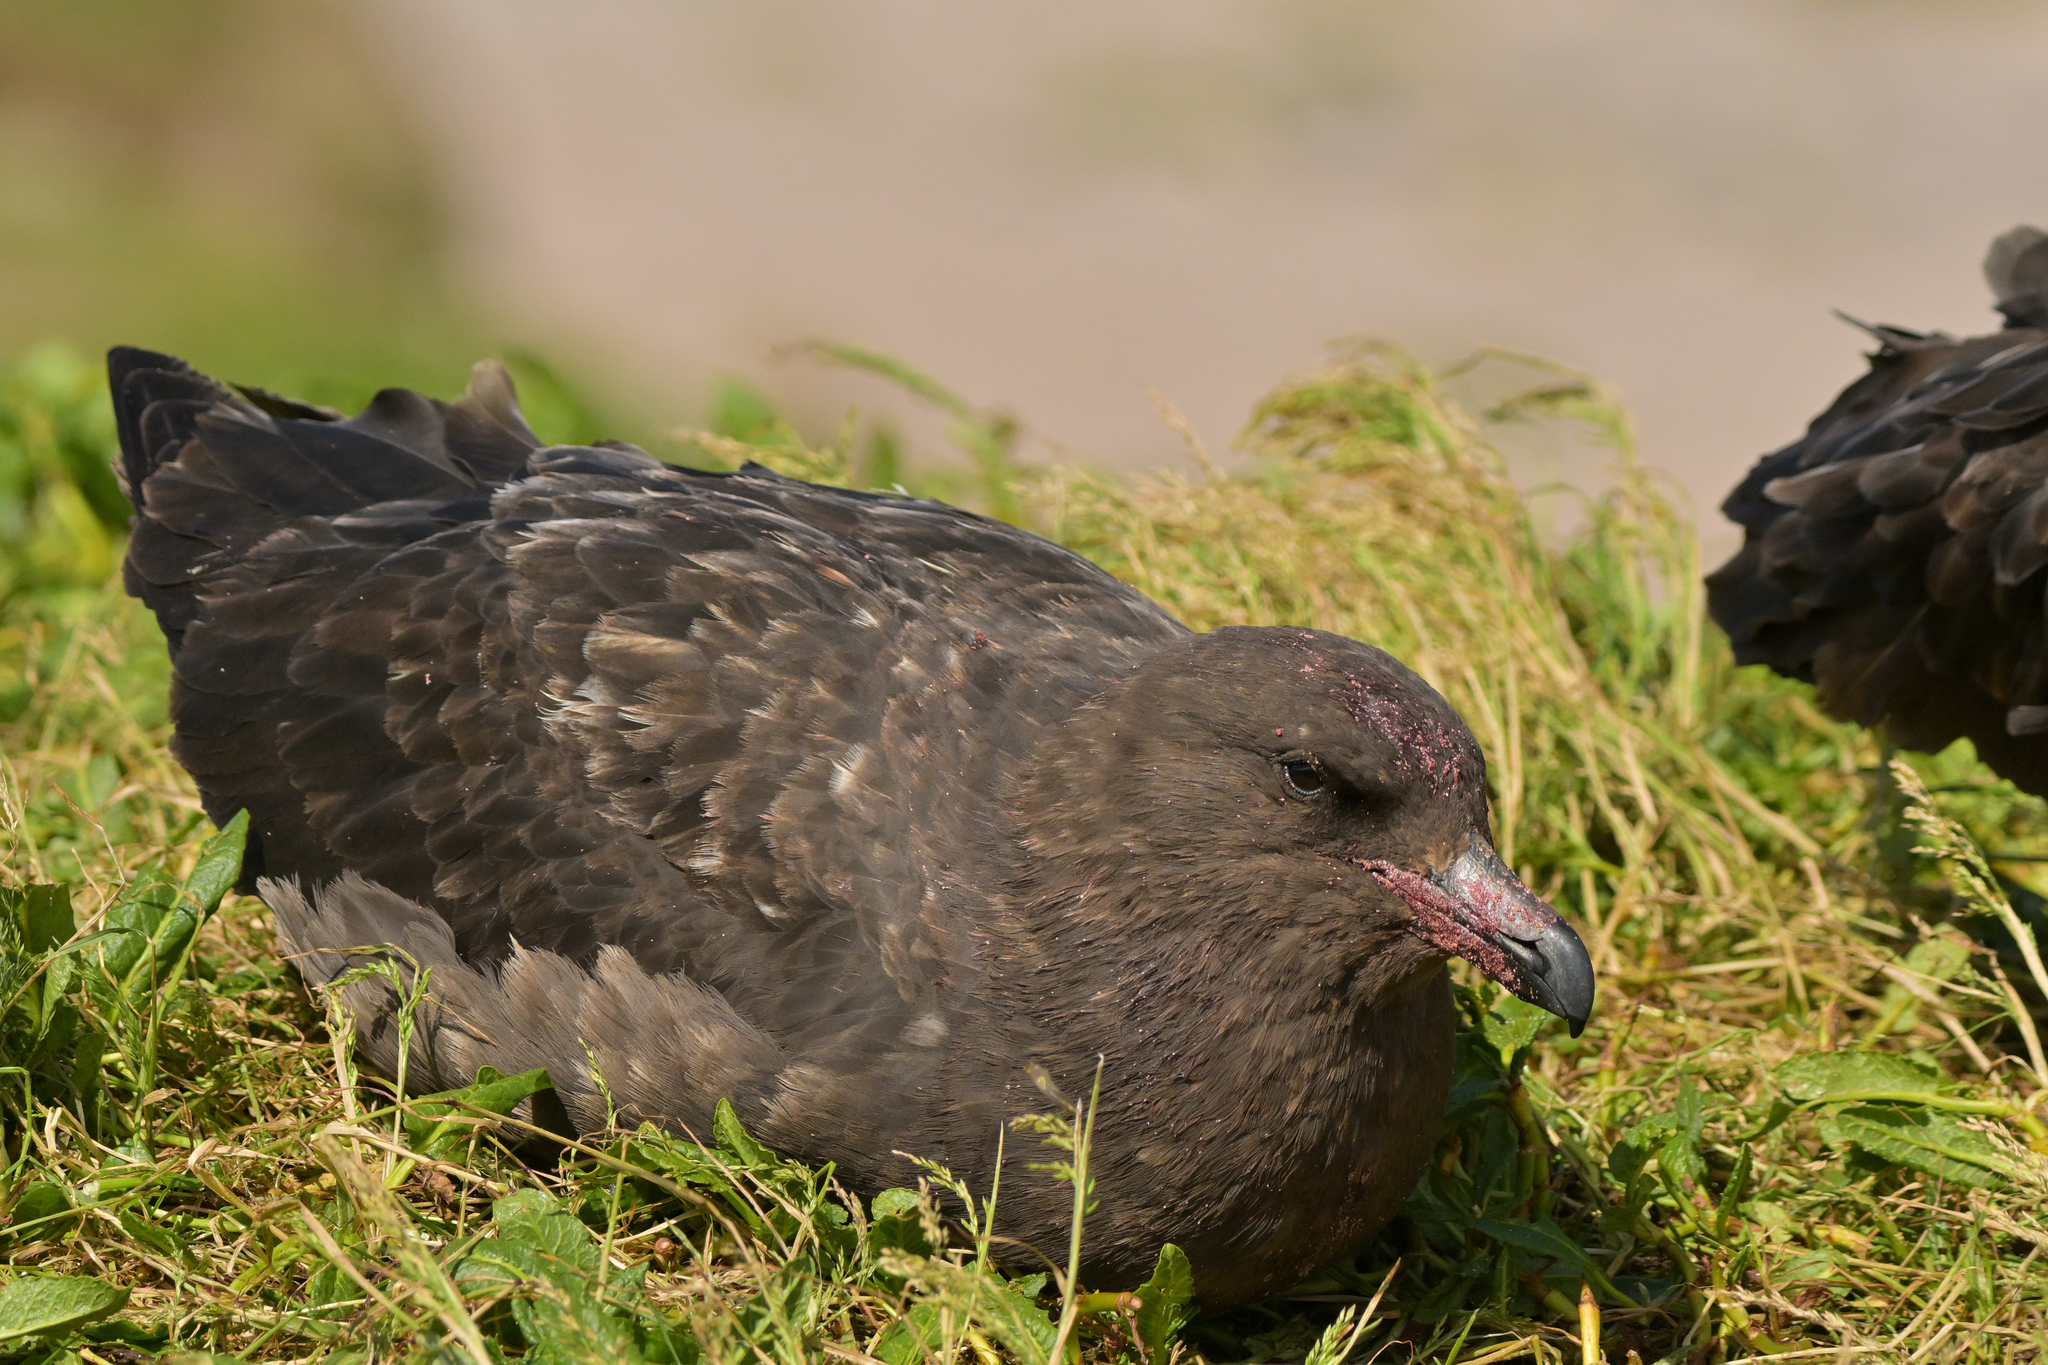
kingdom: Animalia
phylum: Chordata
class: Aves
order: Charadriiformes
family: Stercorariidae
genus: Stercorarius
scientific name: Stercorarius antarcticus
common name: Brown skua
